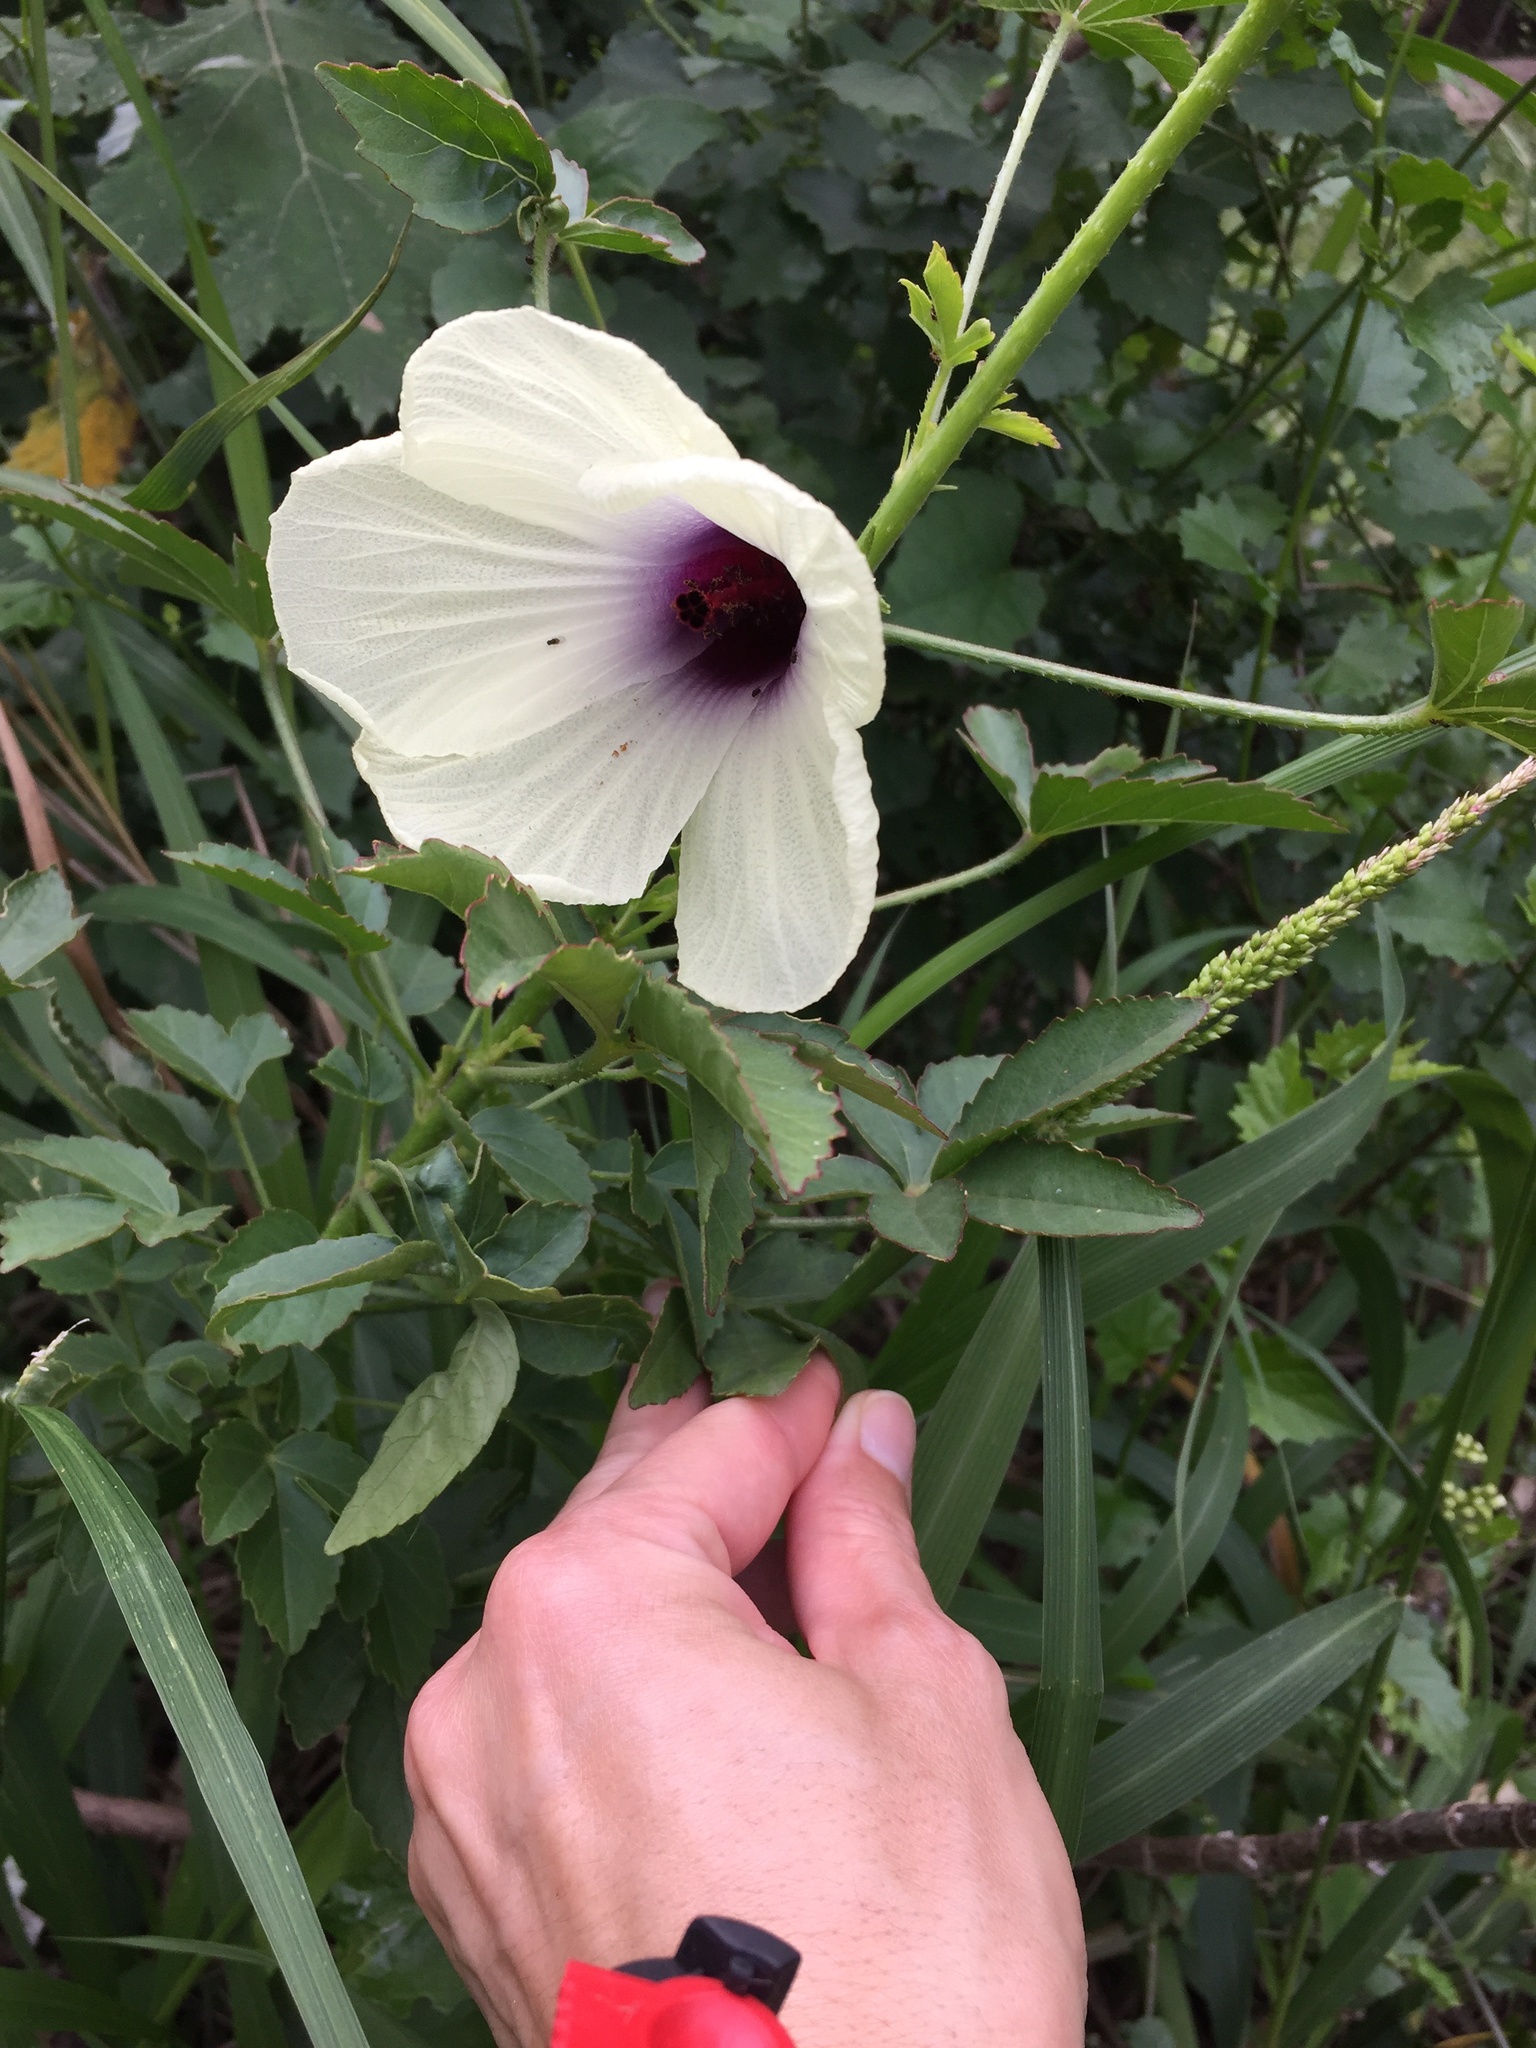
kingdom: Plantae
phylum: Tracheophyta
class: Magnoliopsida
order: Malvales
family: Malvaceae
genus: Hibiscus
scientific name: Hibiscus cannabinus
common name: Brown indianhemp
